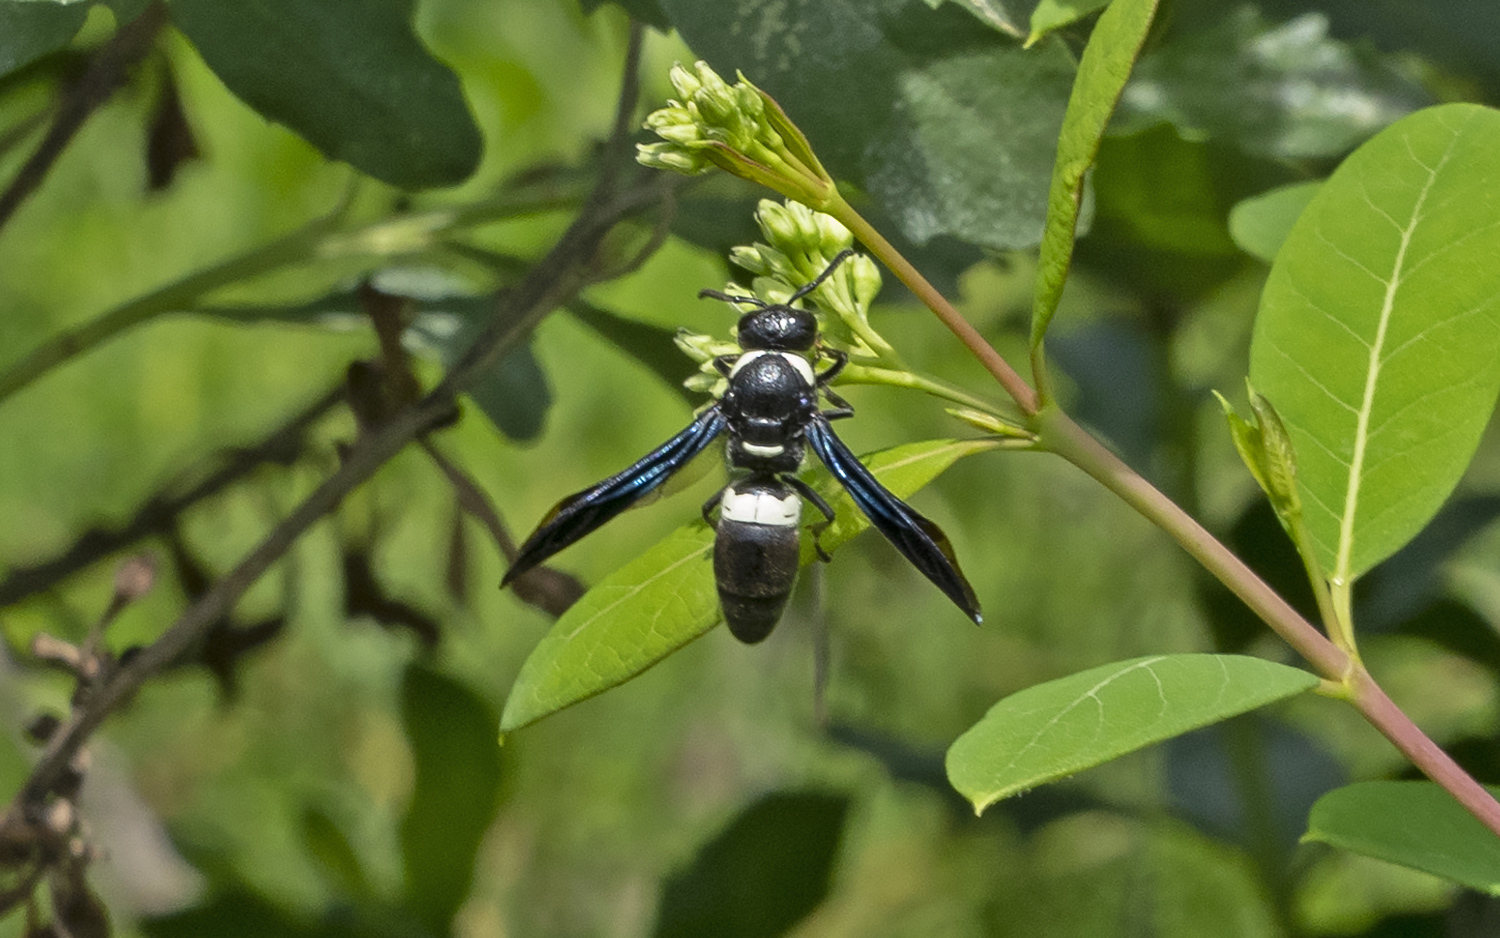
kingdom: Animalia
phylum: Arthropoda
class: Insecta
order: Hymenoptera
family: Eumenidae
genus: Monobia
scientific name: Monobia quadridens
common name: Four-toothed mason wasp
